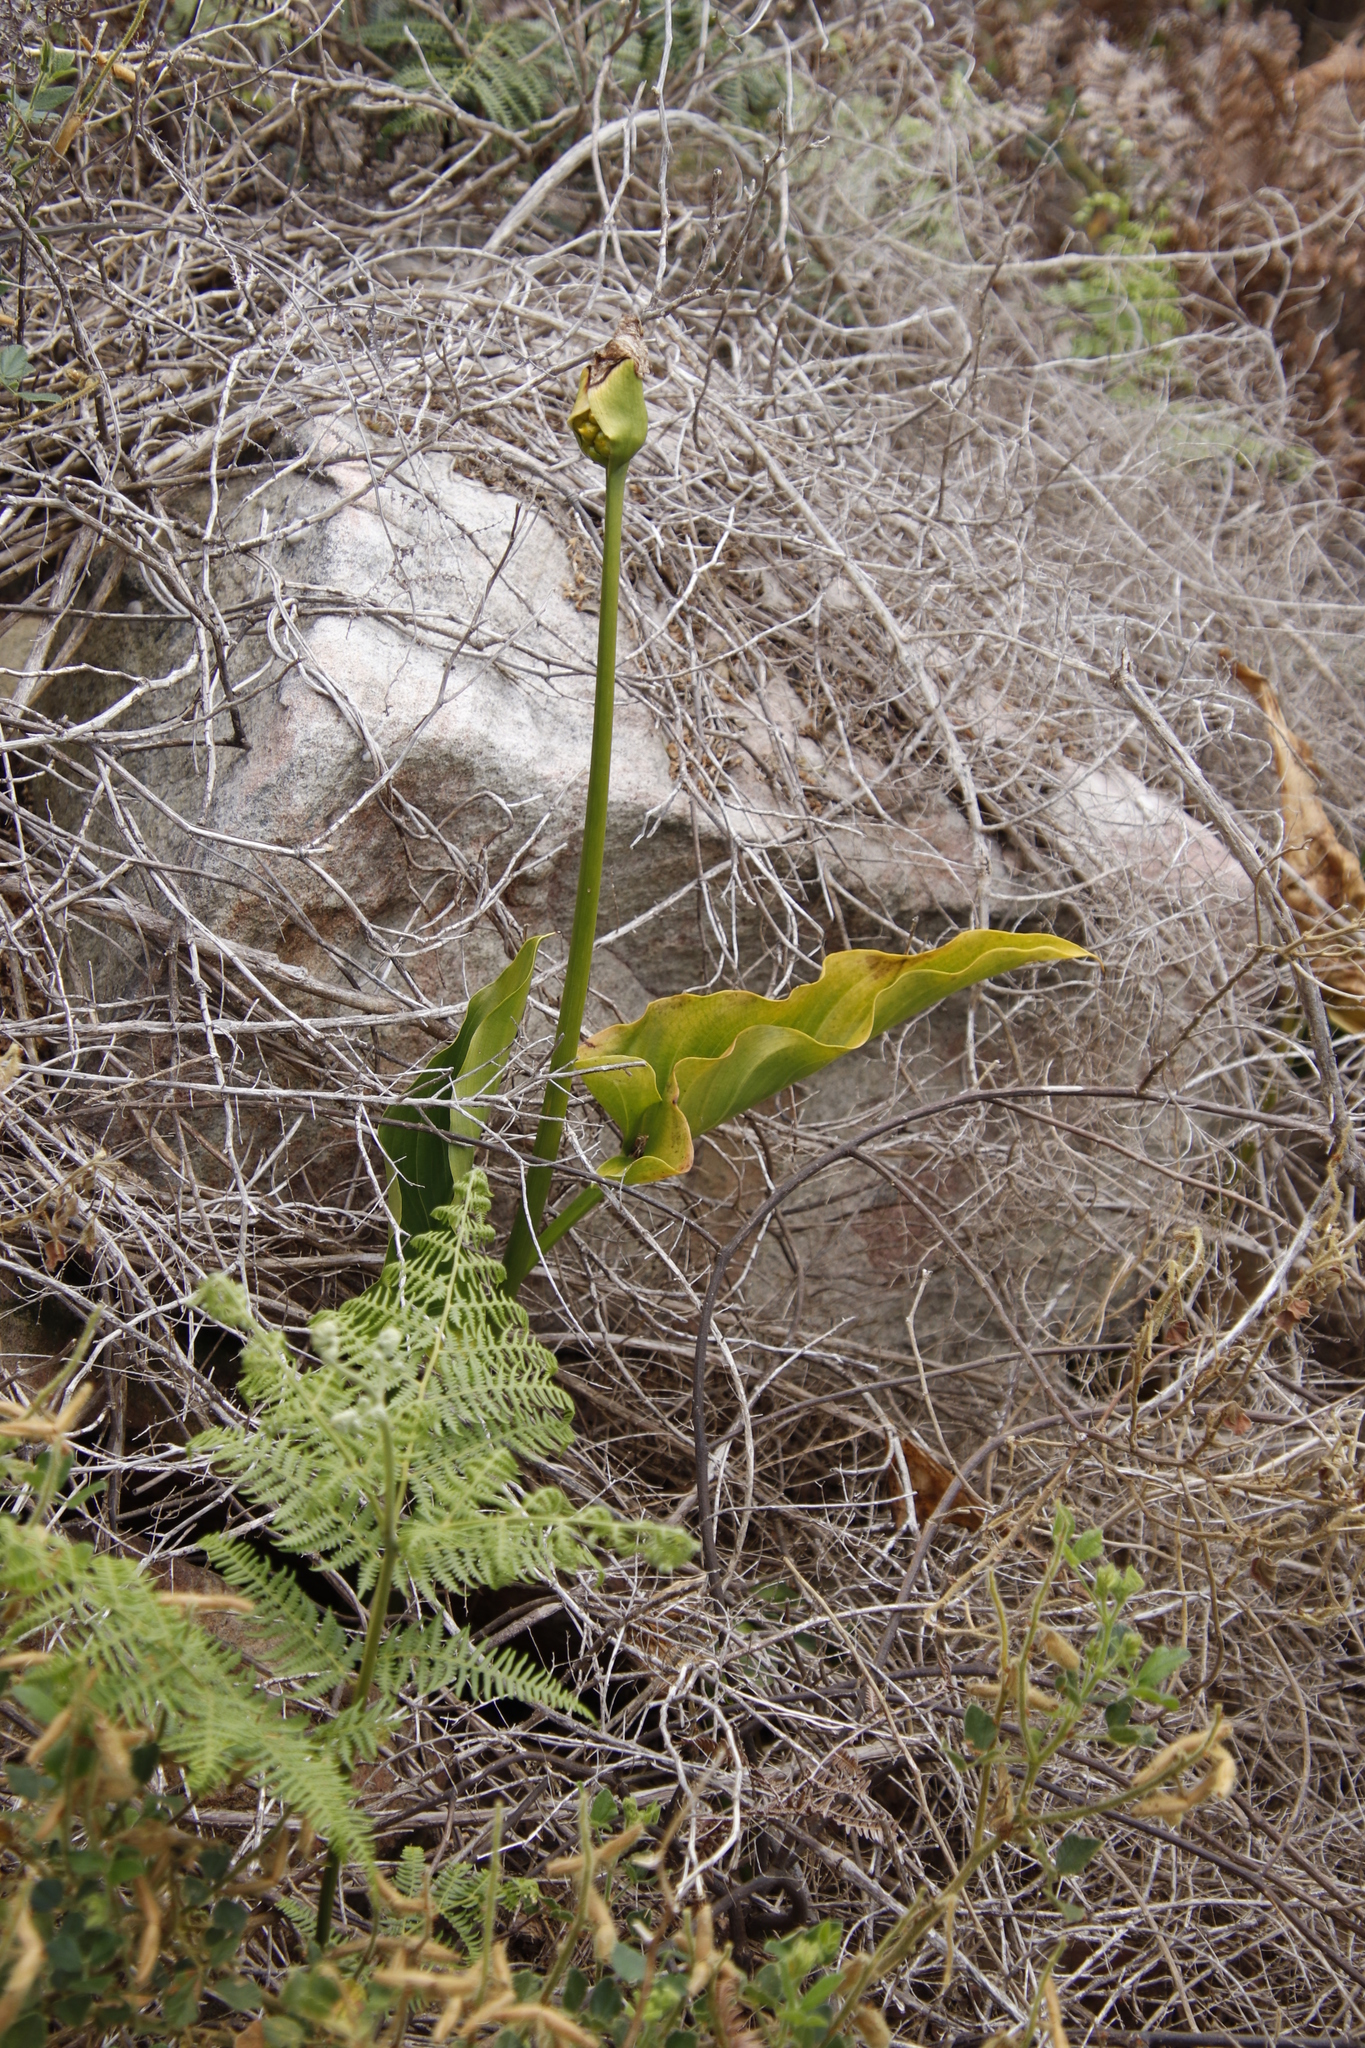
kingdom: Plantae
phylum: Tracheophyta
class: Liliopsida
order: Alismatales
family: Araceae
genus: Zantedeschia
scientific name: Zantedeschia aethiopica
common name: Altar-lily
